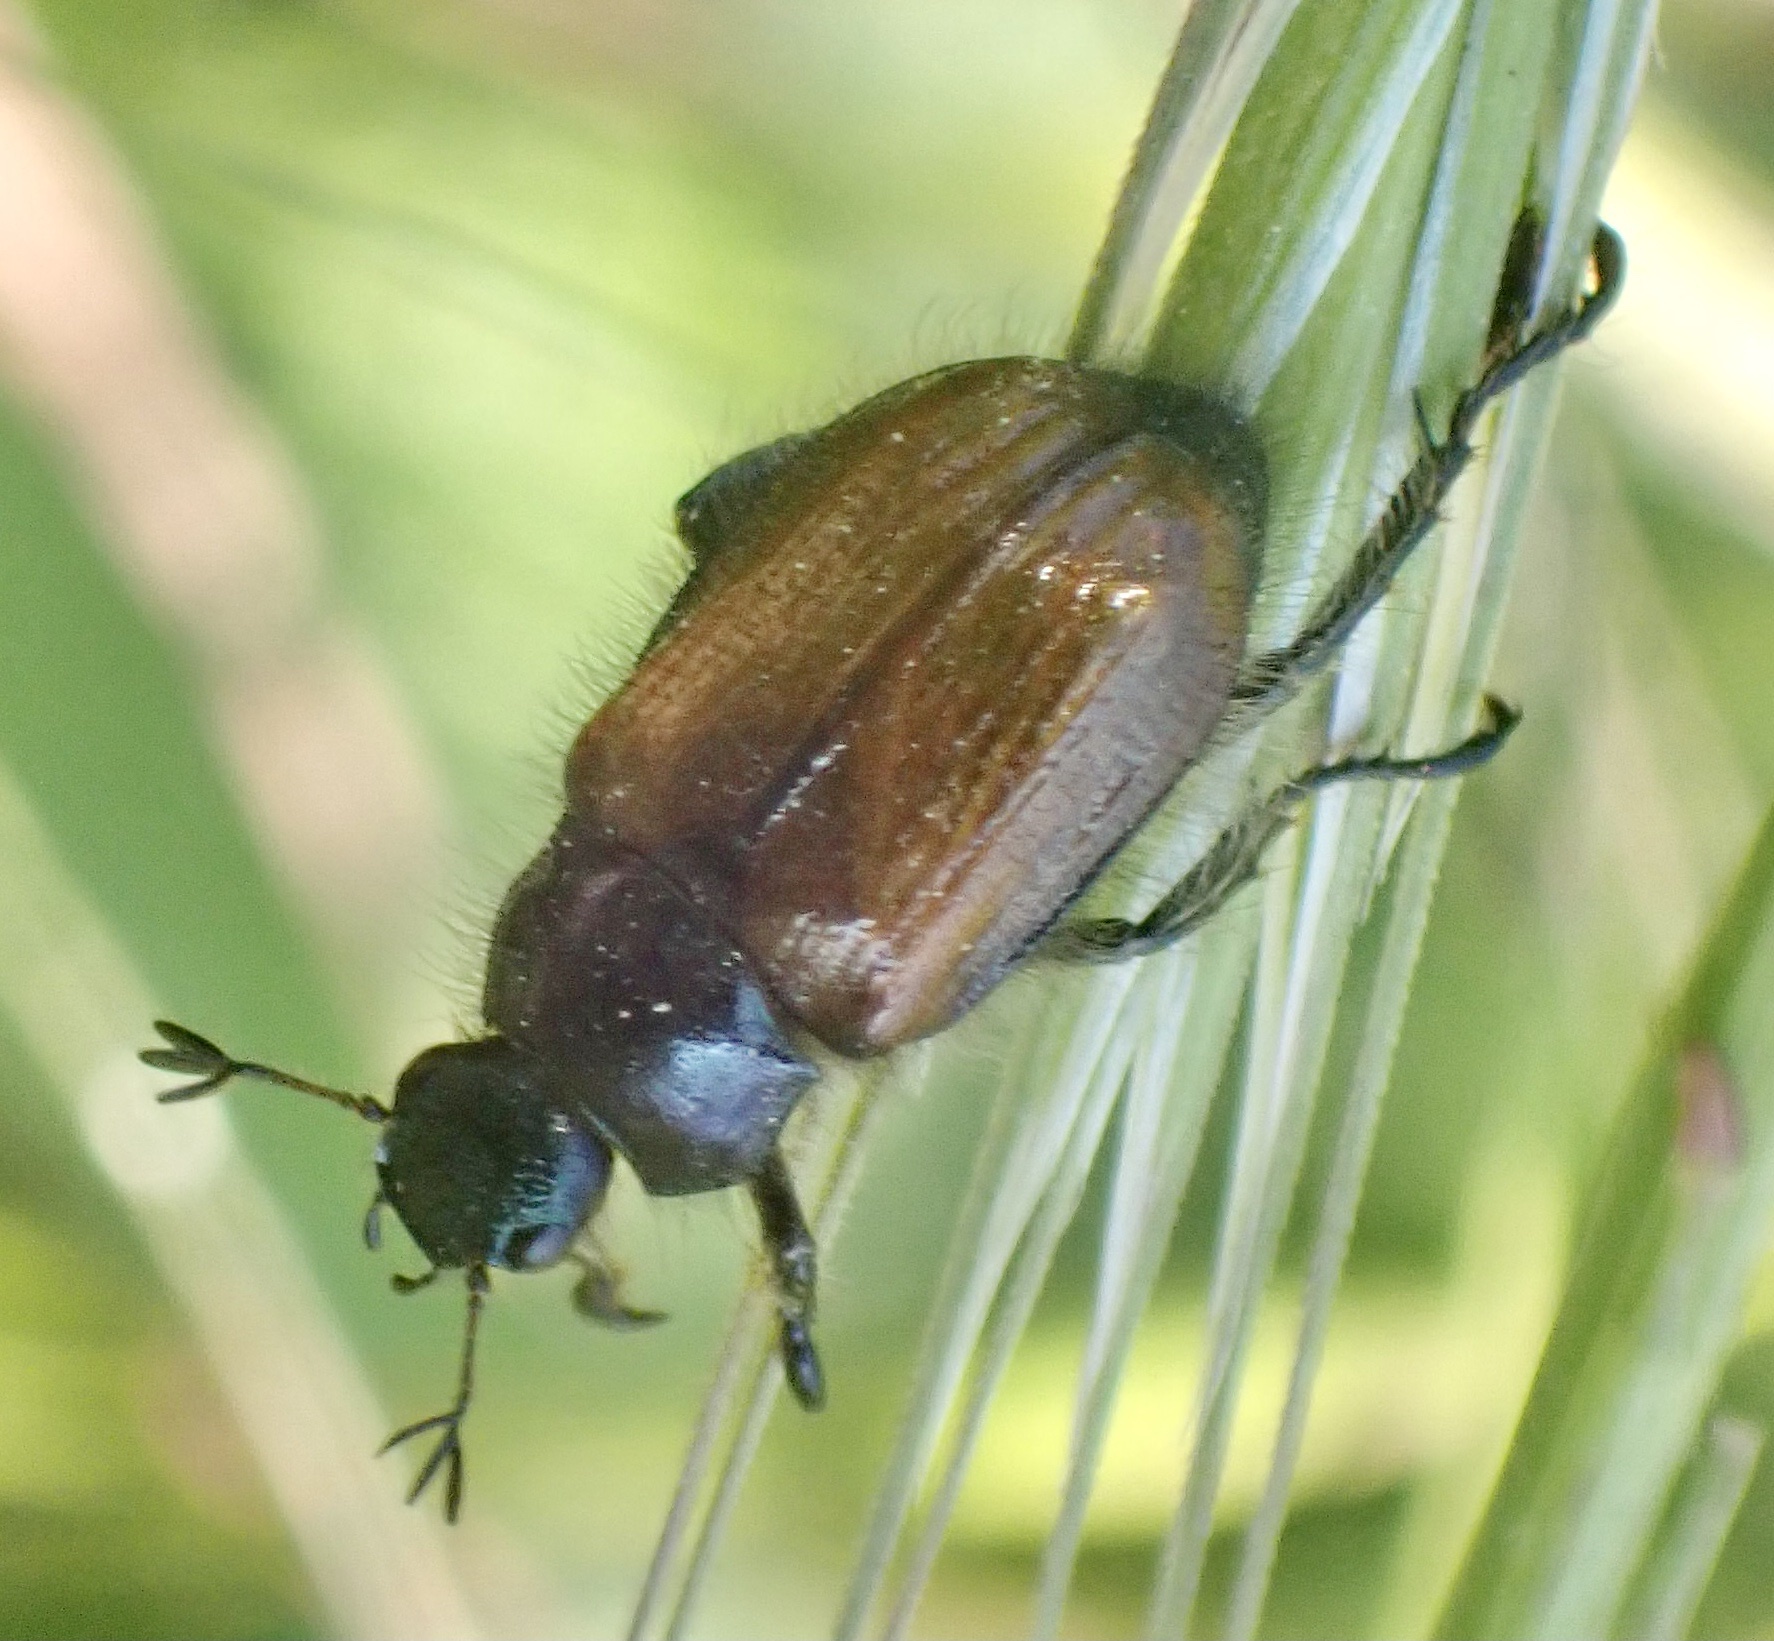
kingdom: Animalia
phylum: Arthropoda
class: Insecta
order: Coleoptera
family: Scarabaeidae
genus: Phyllopertha
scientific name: Phyllopertha horticola
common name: Garden chafer
